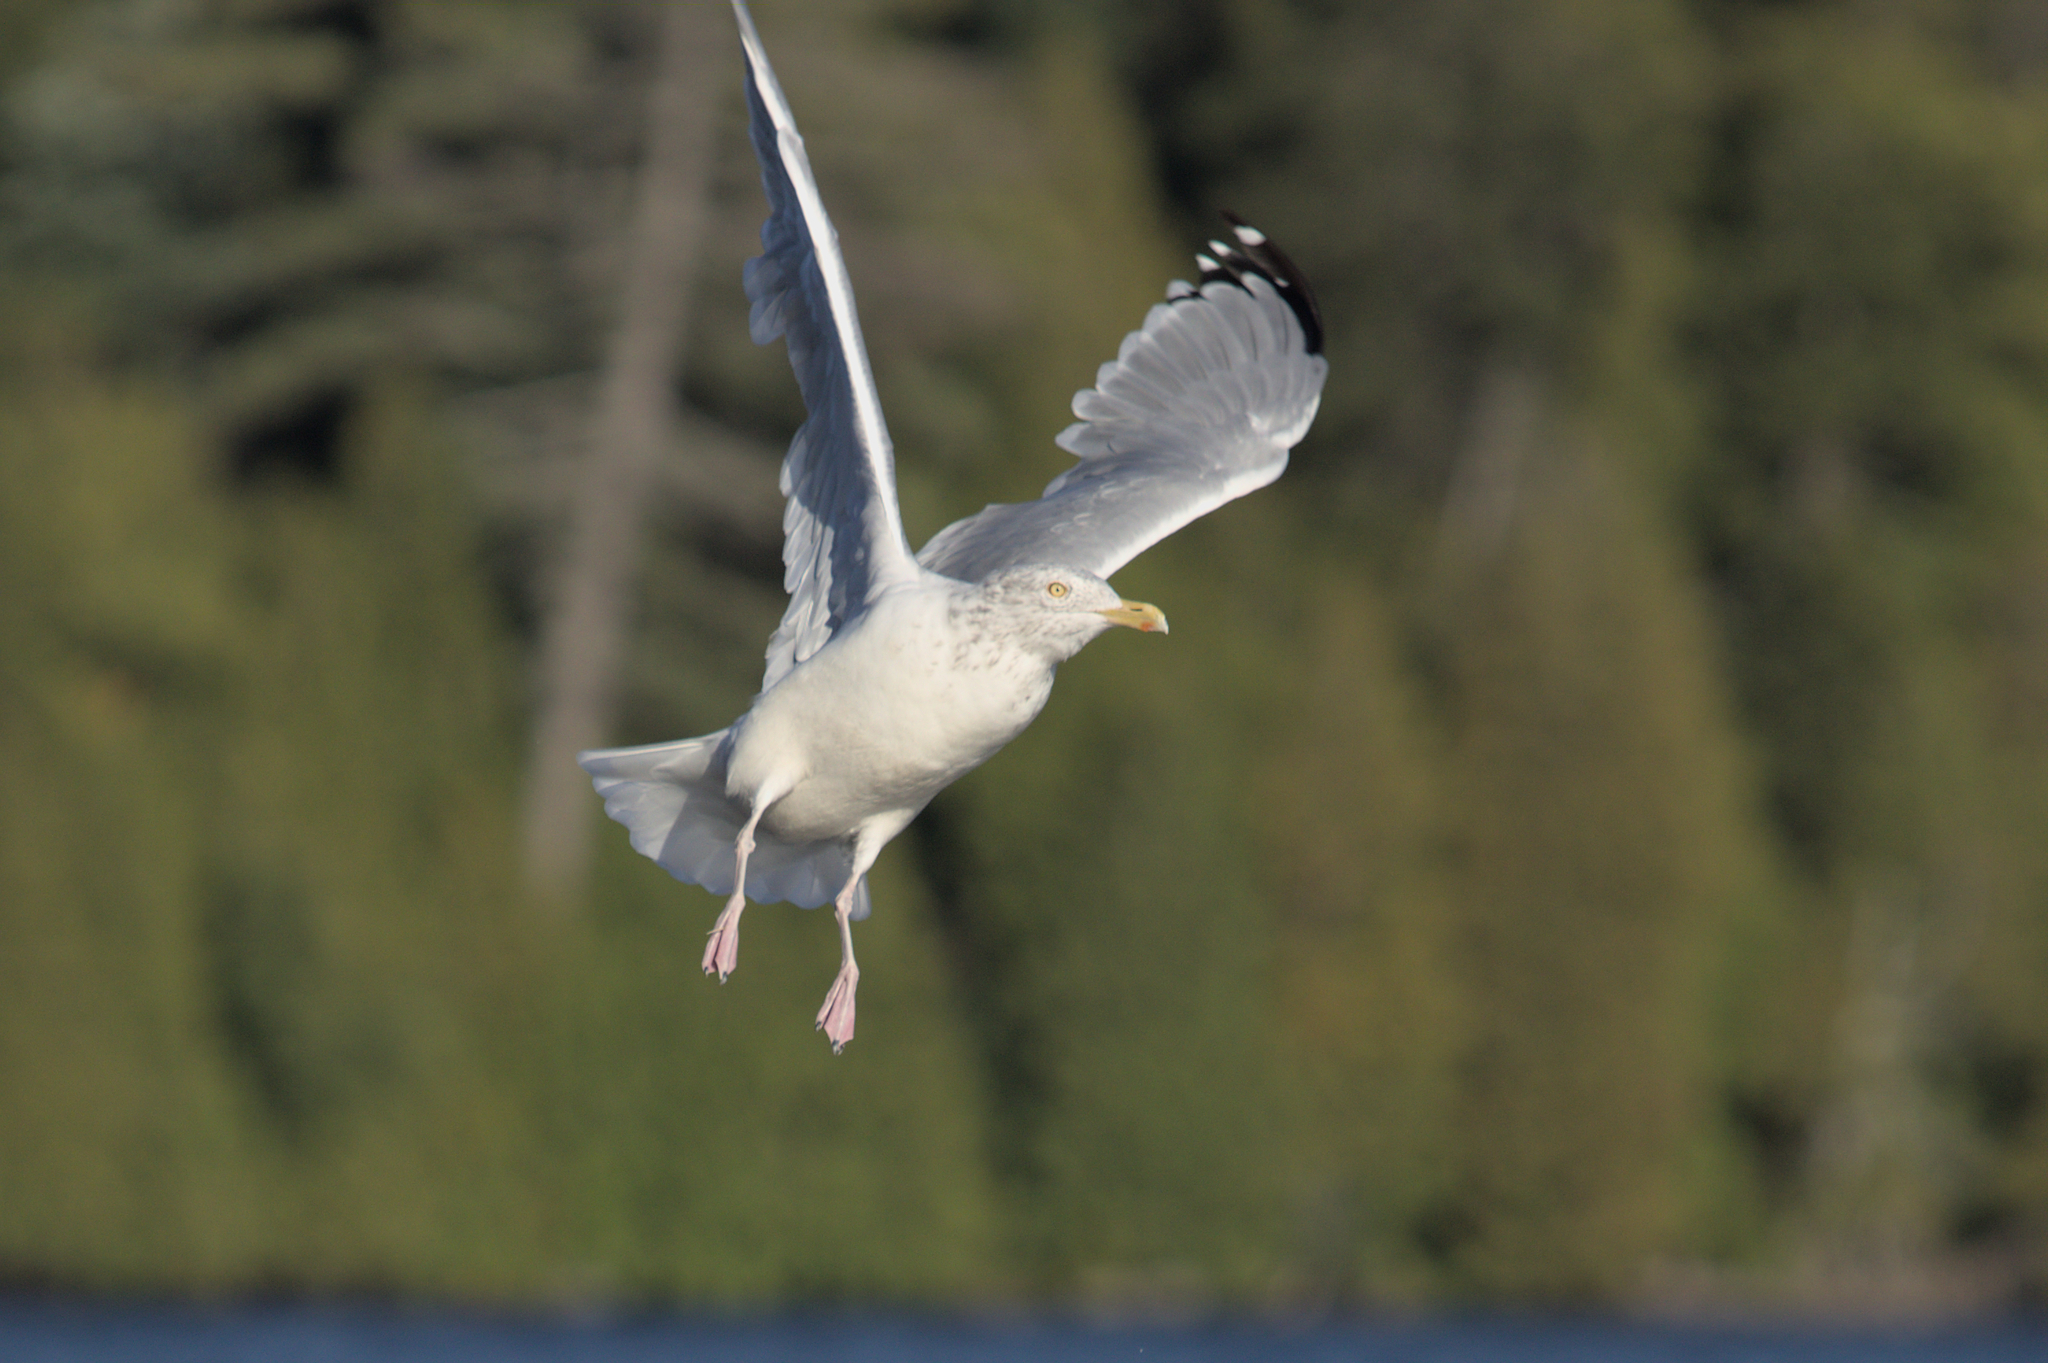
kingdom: Animalia
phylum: Chordata
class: Aves
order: Charadriiformes
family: Laridae
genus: Larus
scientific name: Larus argentatus
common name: Herring gull
